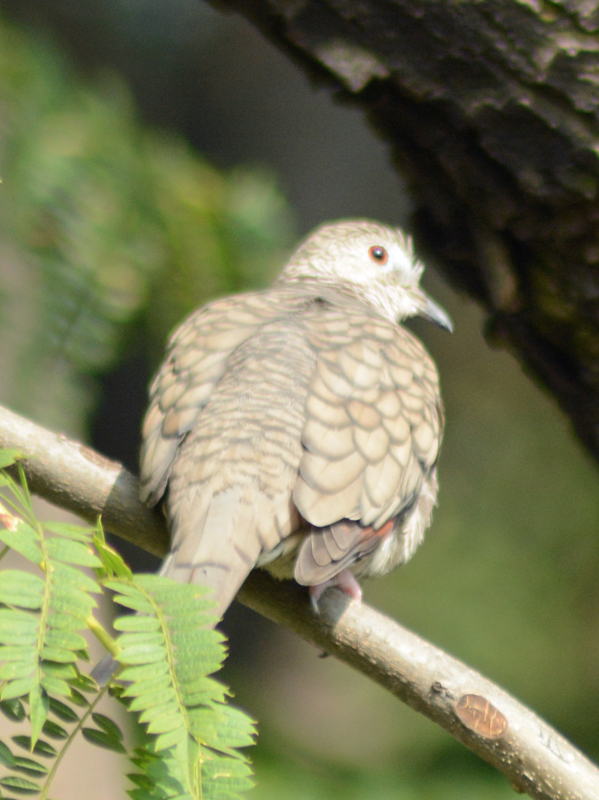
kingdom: Animalia
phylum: Chordata
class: Aves
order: Columbiformes
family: Columbidae
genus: Columbina
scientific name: Columbina inca
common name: Inca dove
